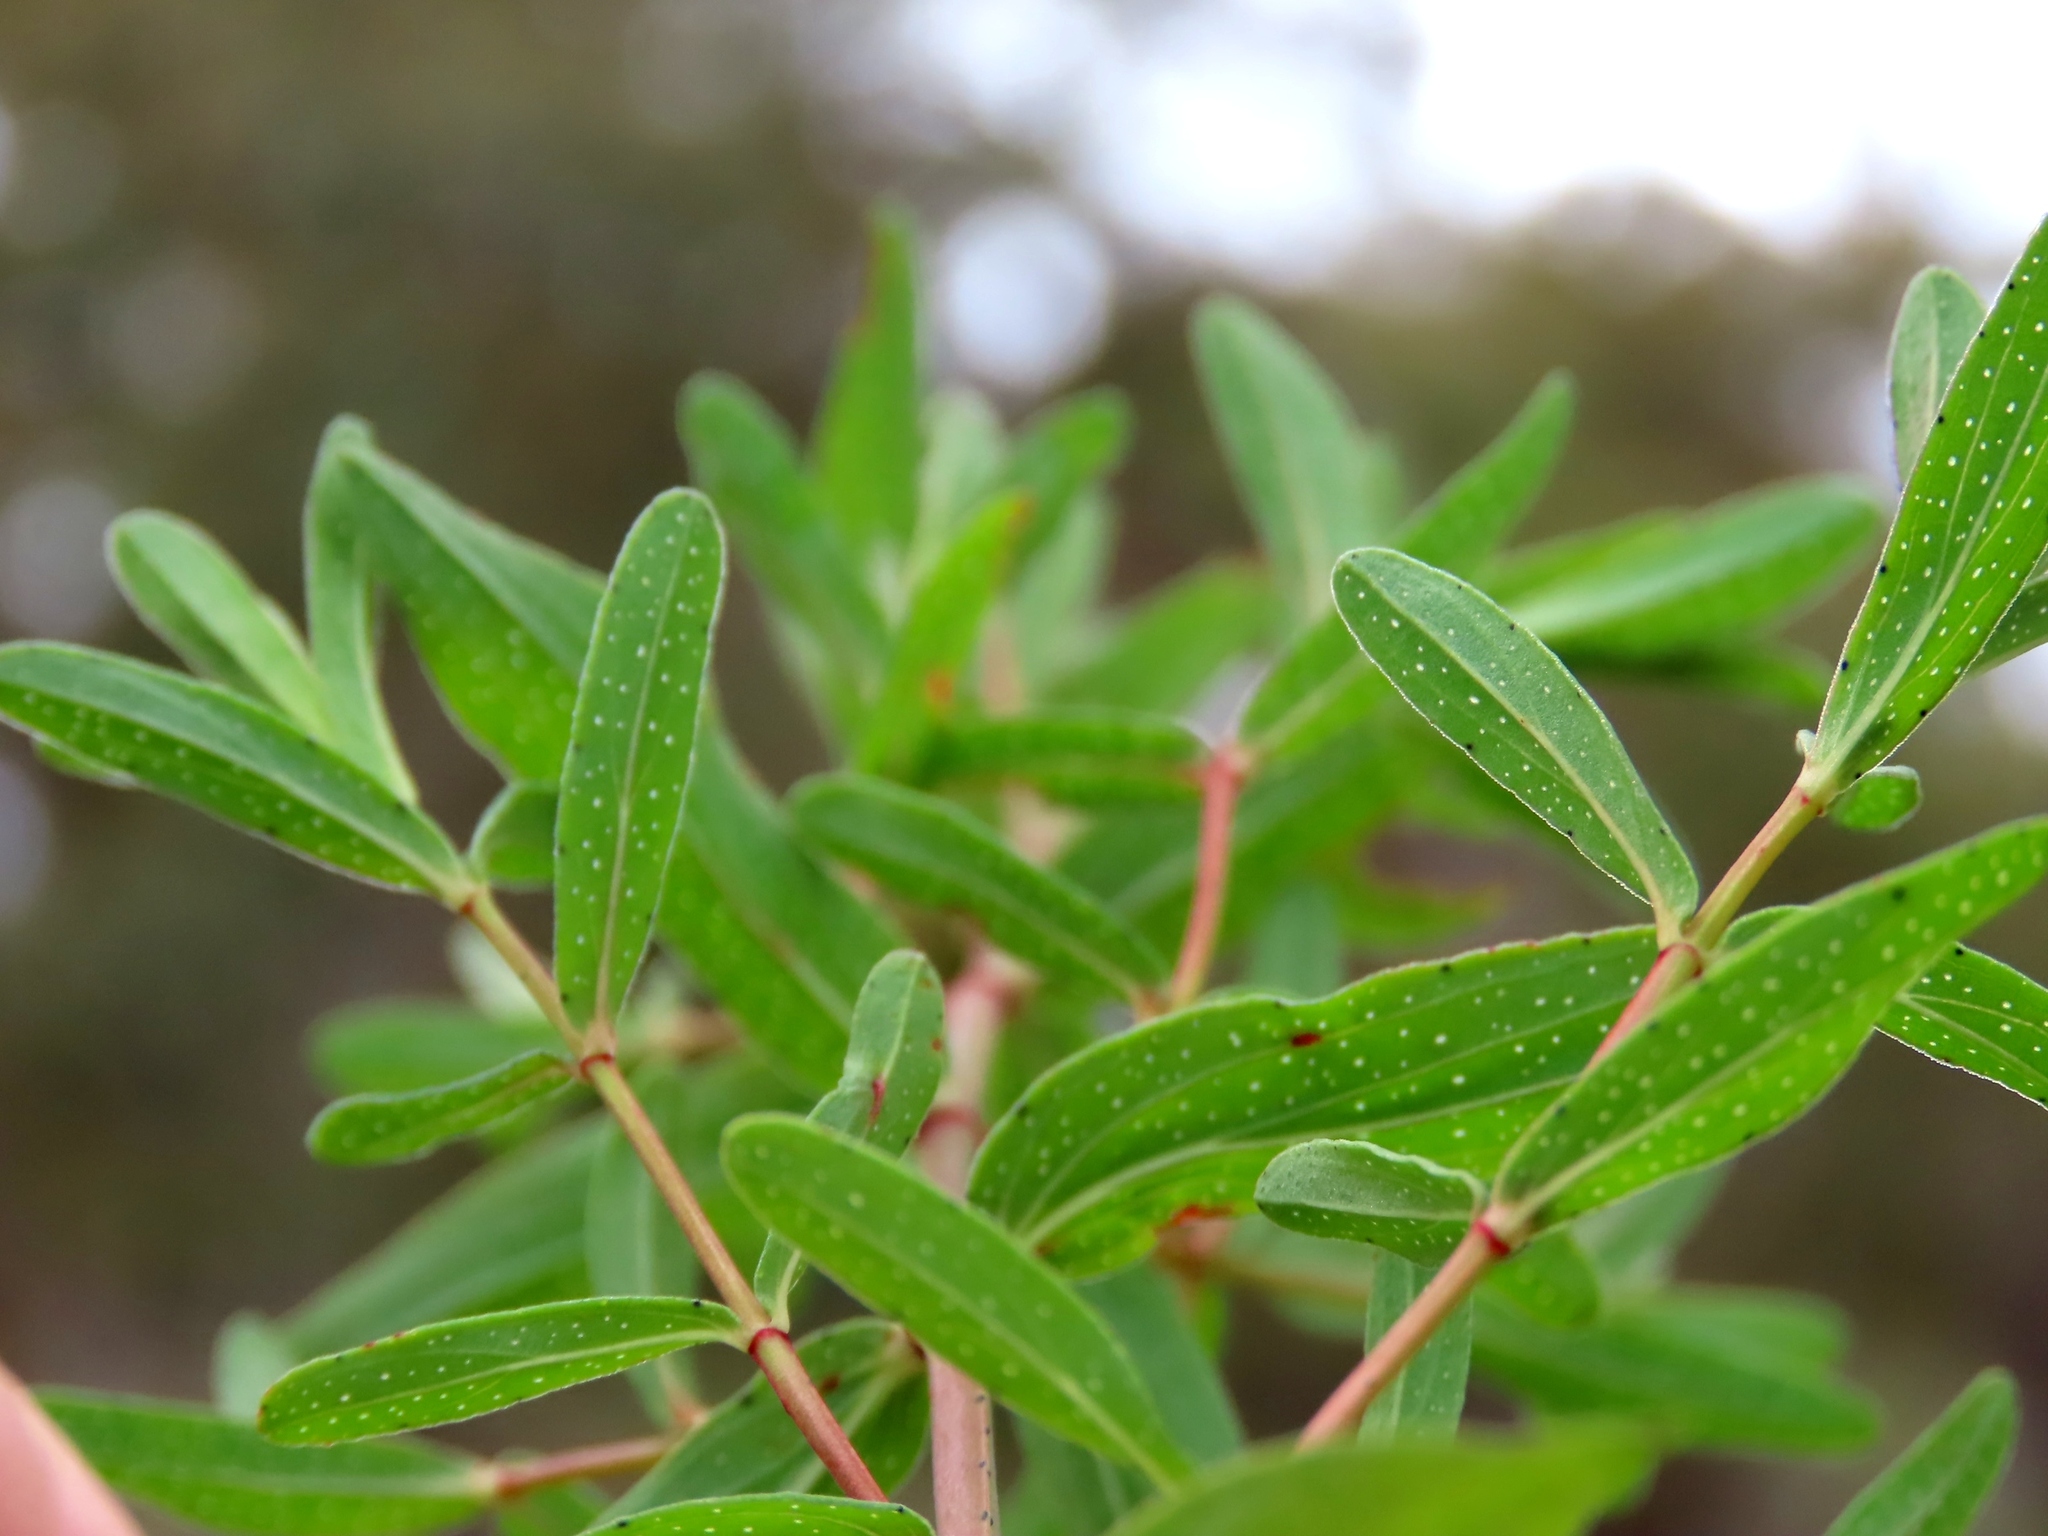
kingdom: Plantae
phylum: Tracheophyta
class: Magnoliopsida
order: Malpighiales
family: Hypericaceae
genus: Hypericum
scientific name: Hypericum perforatum
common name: Common st. johnswort
